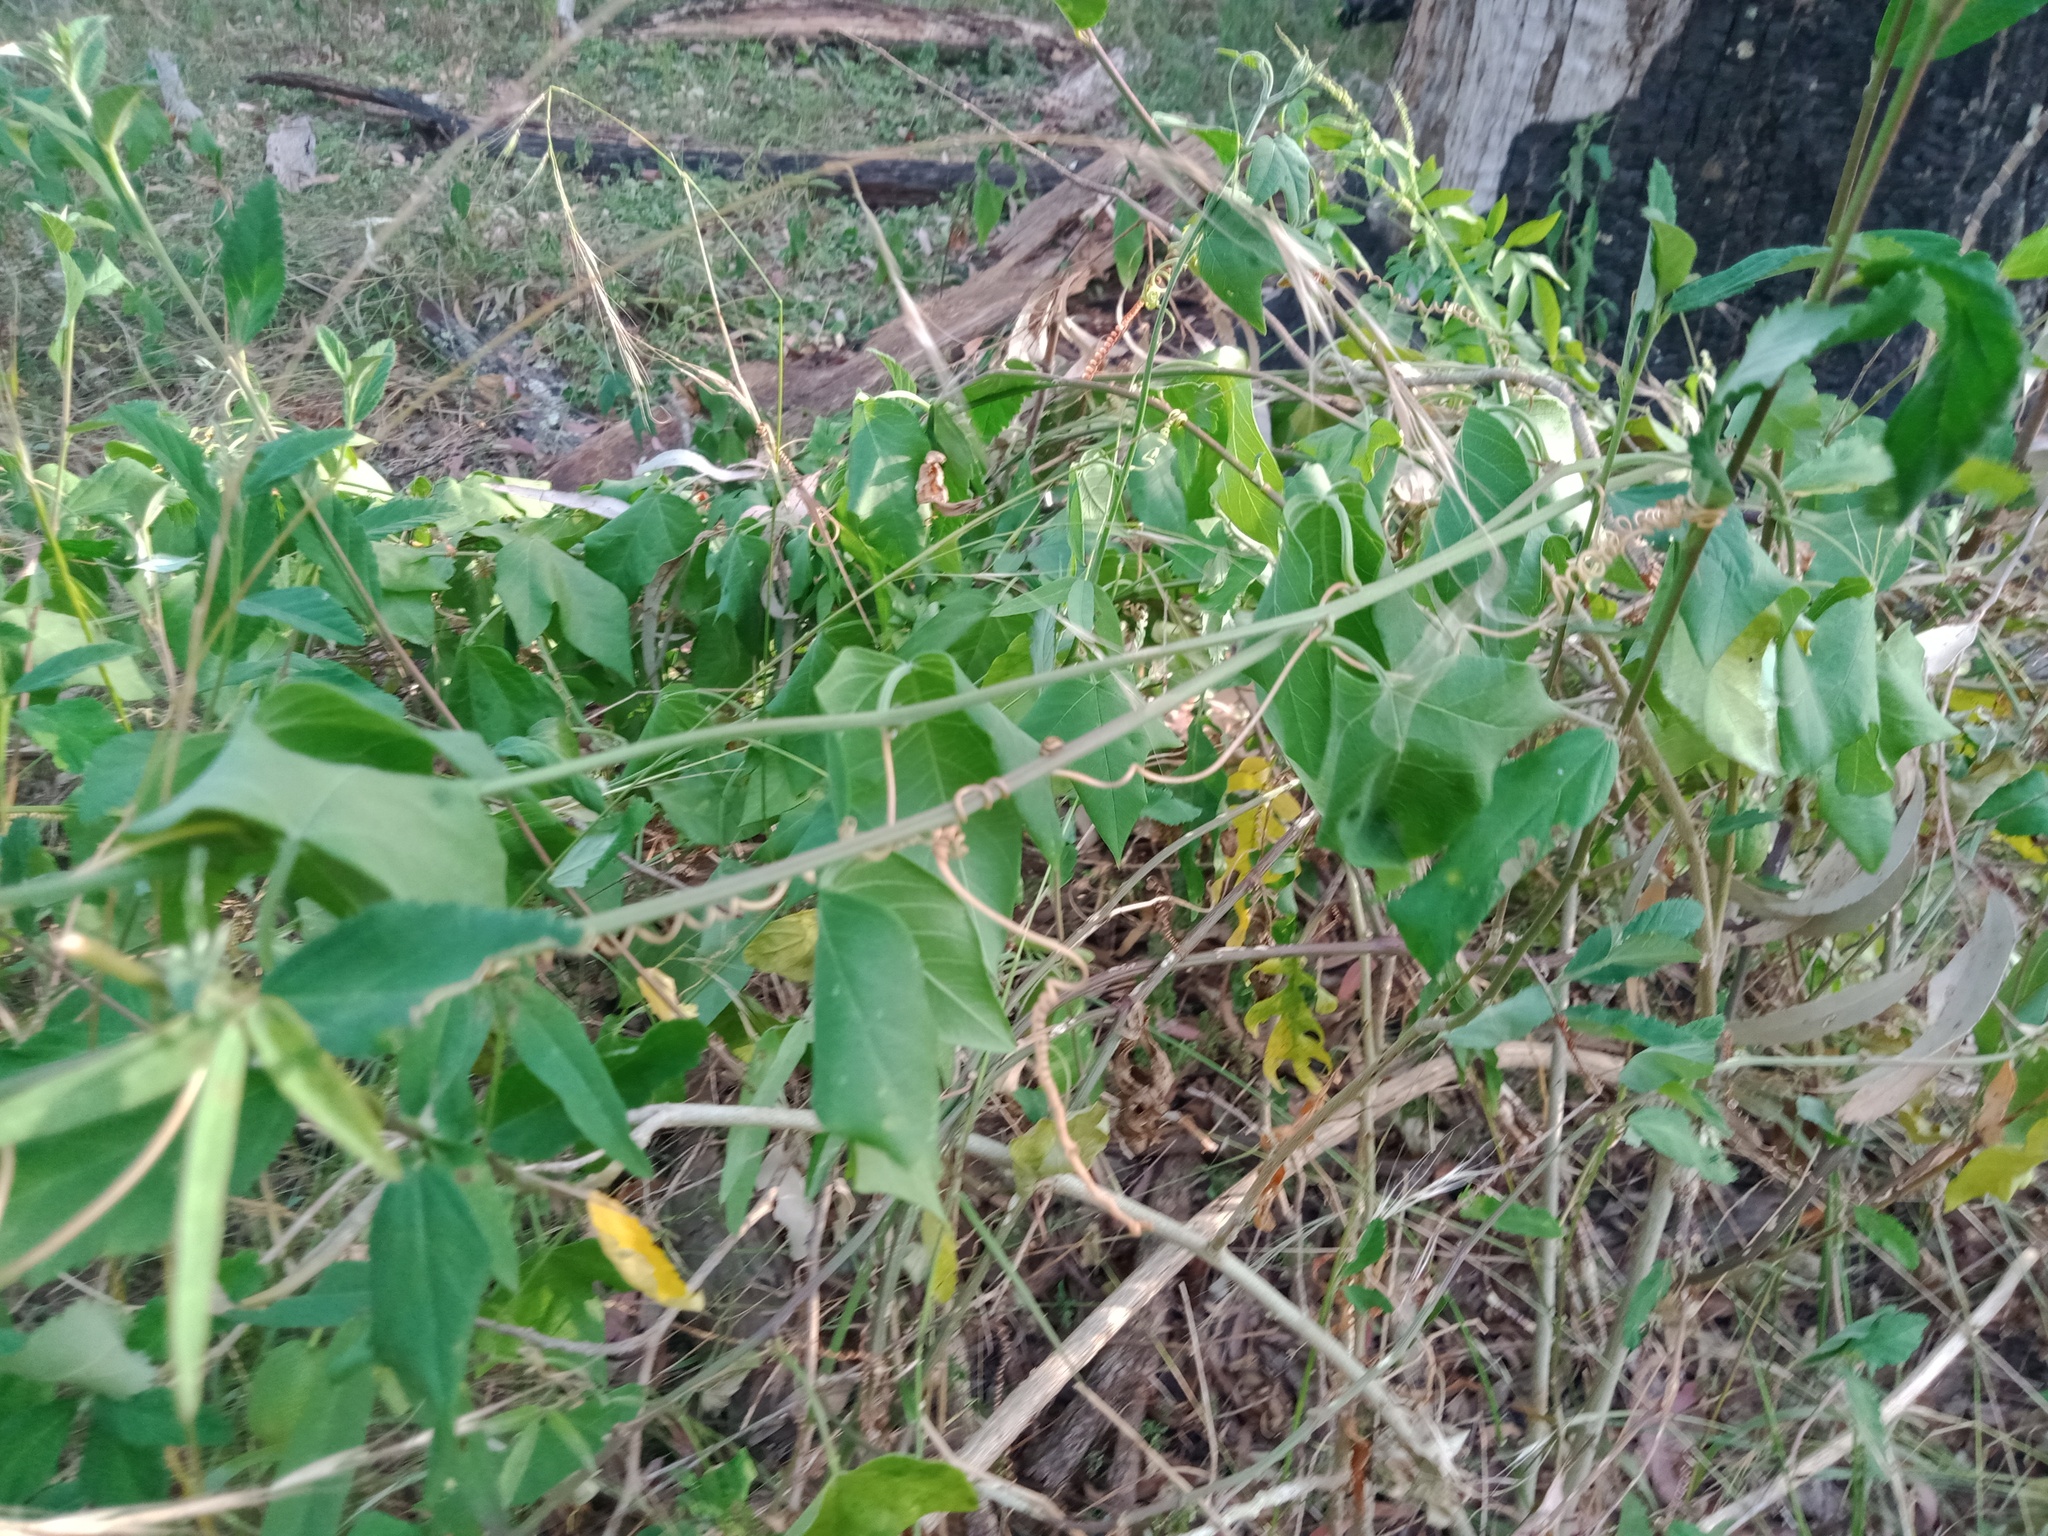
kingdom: Plantae
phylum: Tracheophyta
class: Magnoliopsida
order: Malpighiales
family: Passifloraceae
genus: Passiflora
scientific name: Passiflora herbertiana
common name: Yellow passionflower
